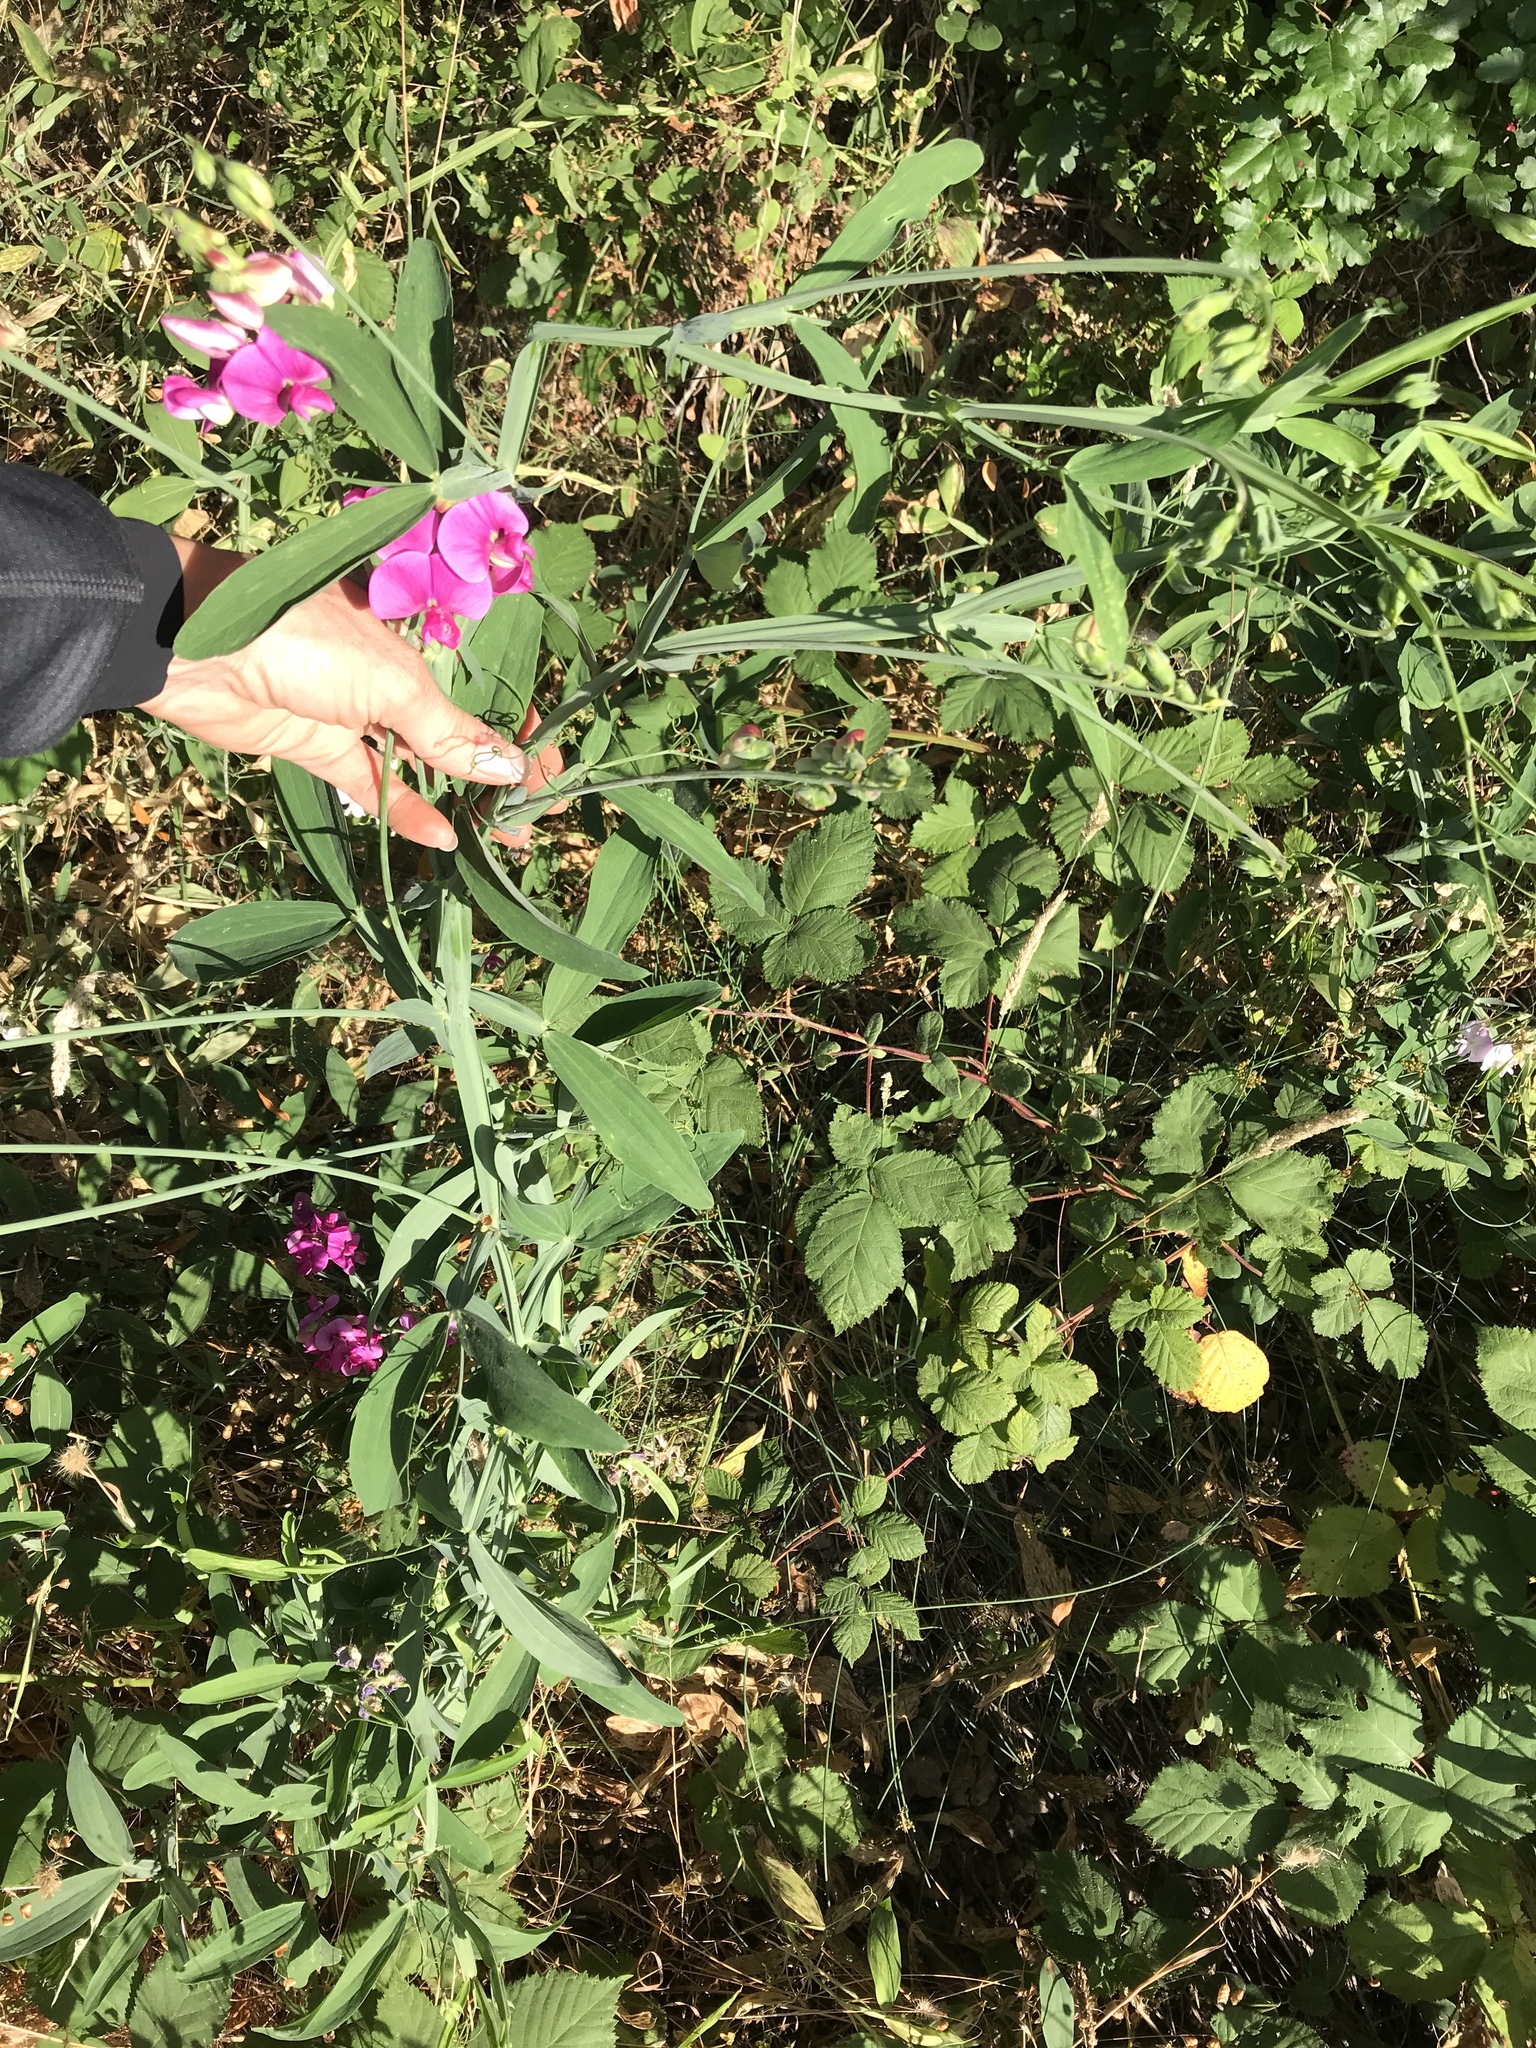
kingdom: Plantae
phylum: Tracheophyta
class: Magnoliopsida
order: Fabales
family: Fabaceae
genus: Lathyrus
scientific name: Lathyrus latifolius
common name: Perennial pea
